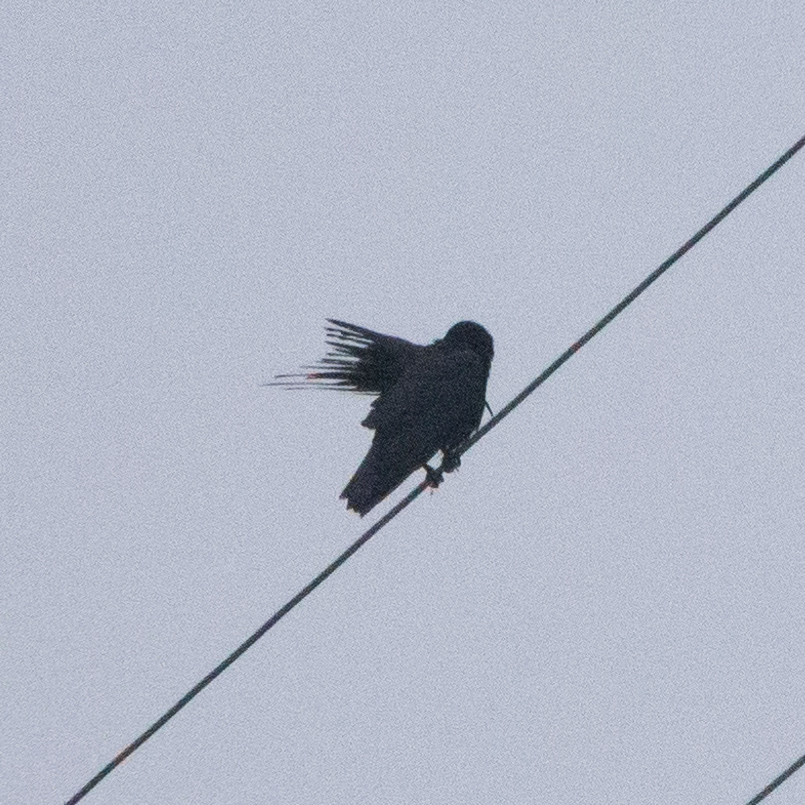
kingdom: Animalia
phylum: Chordata
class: Aves
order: Passeriformes
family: Corvidae
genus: Corvus
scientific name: Corvus corone
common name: Carrion crow
